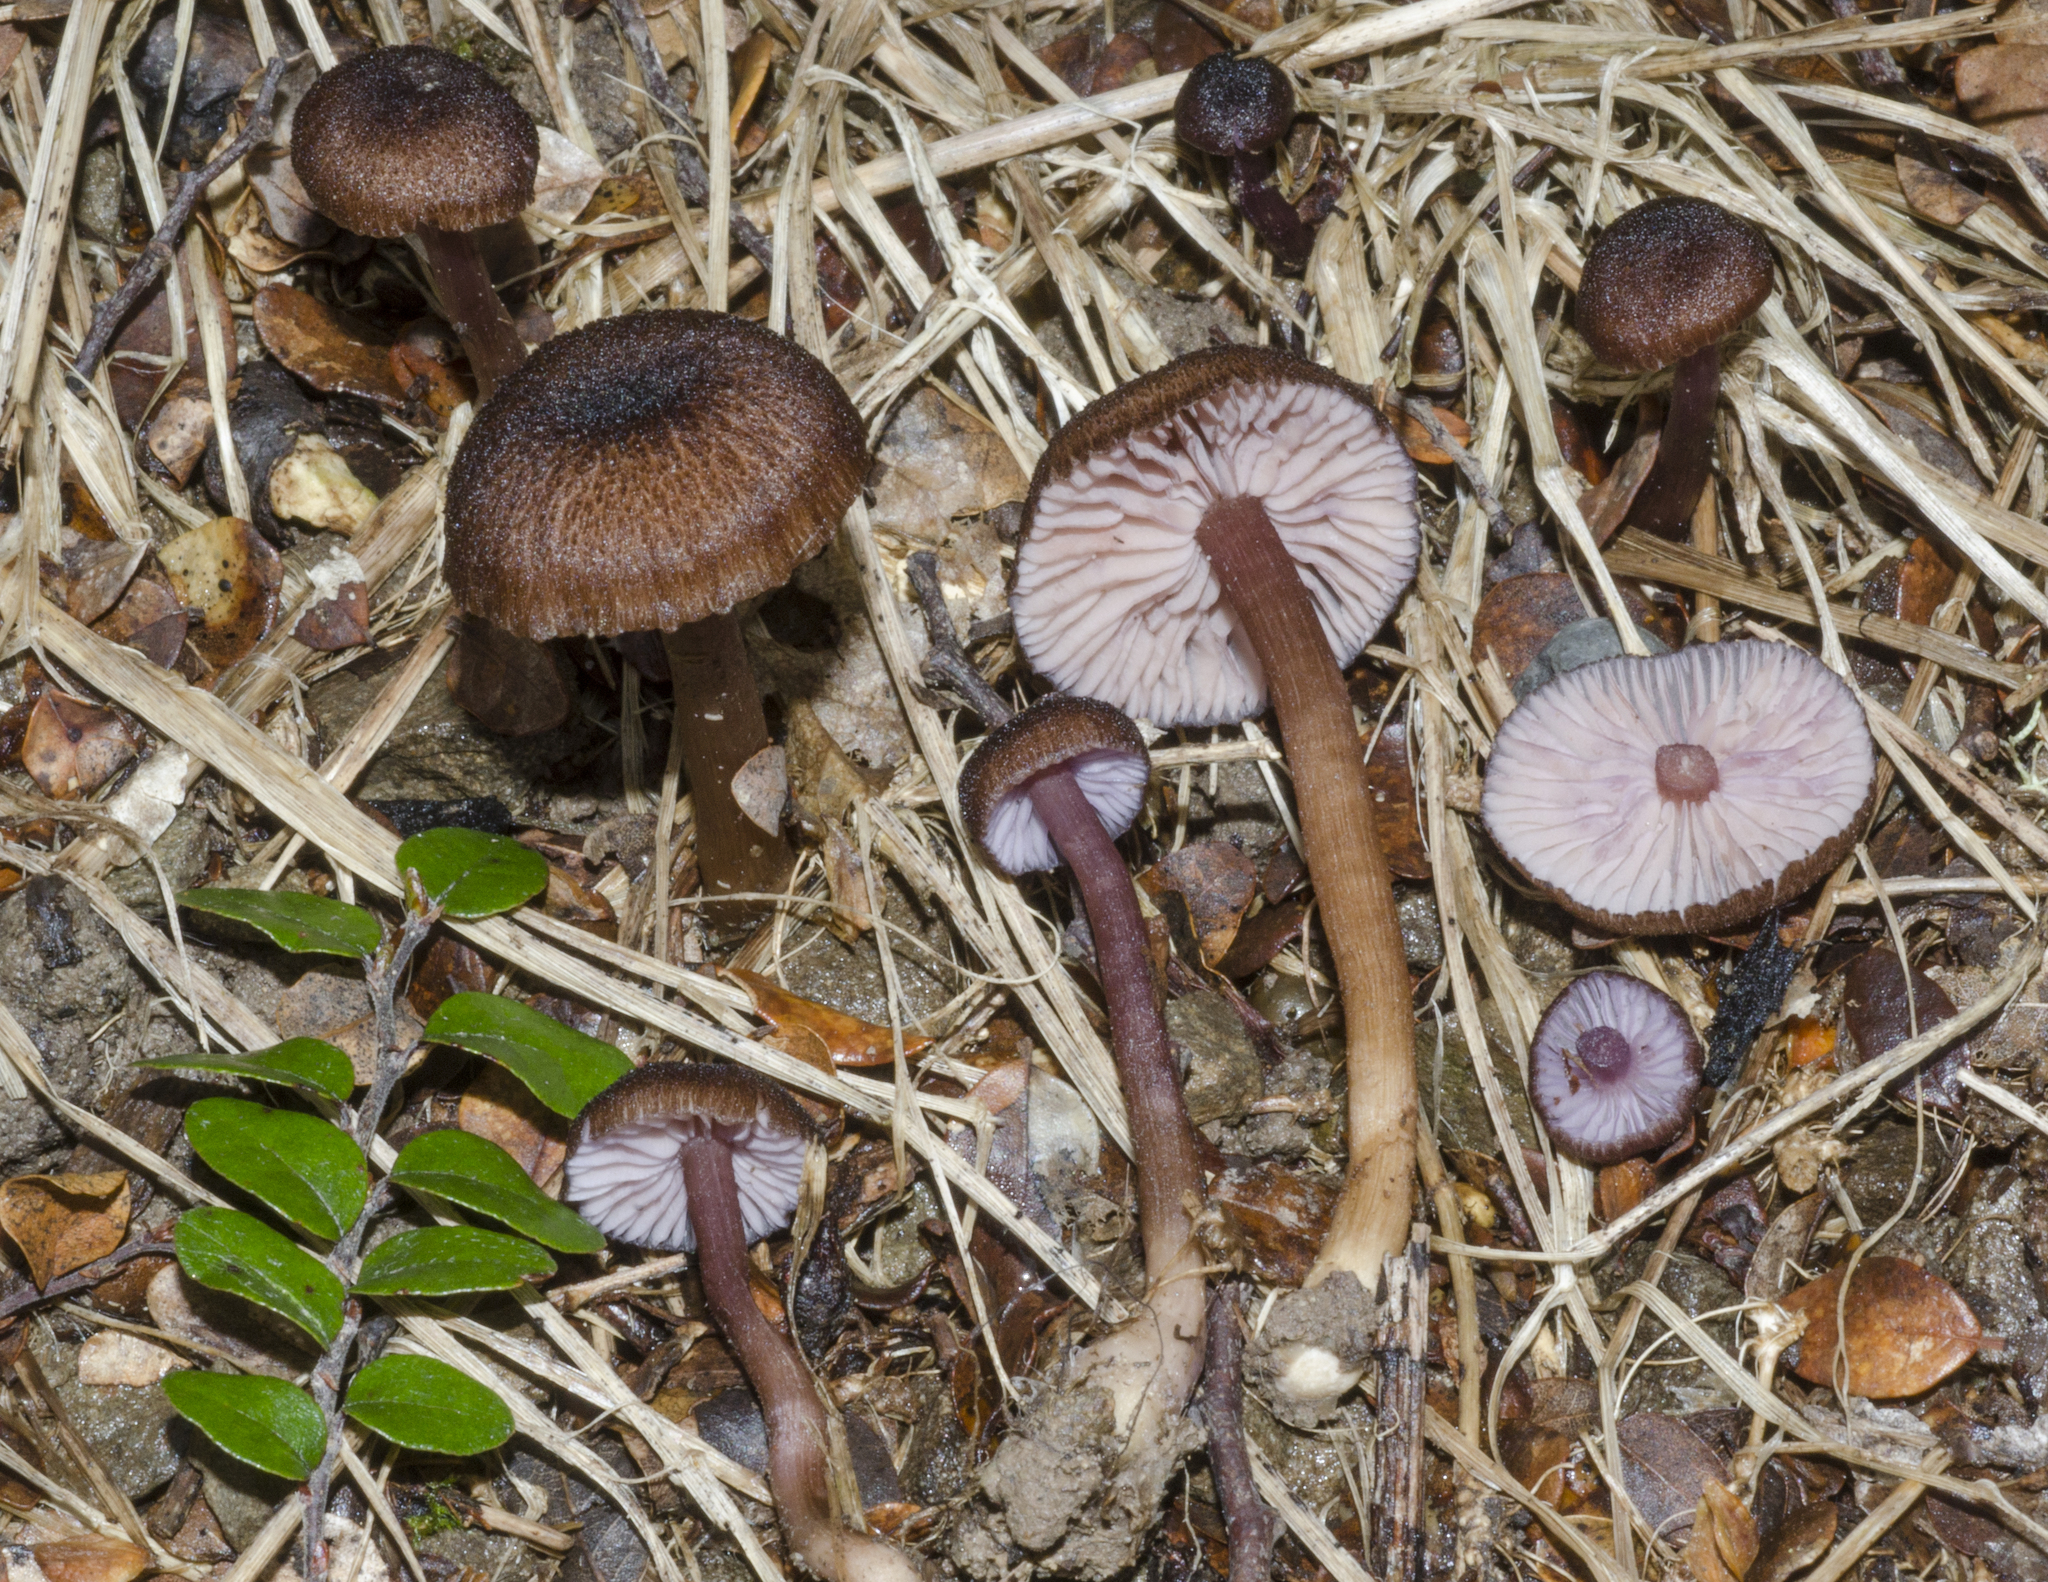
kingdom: Fungi
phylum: Basidiomycota
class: Agaricomycetes
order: Agaricales
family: Hydnangiaceae
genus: Laccaria
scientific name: Laccaria violaceonigra
